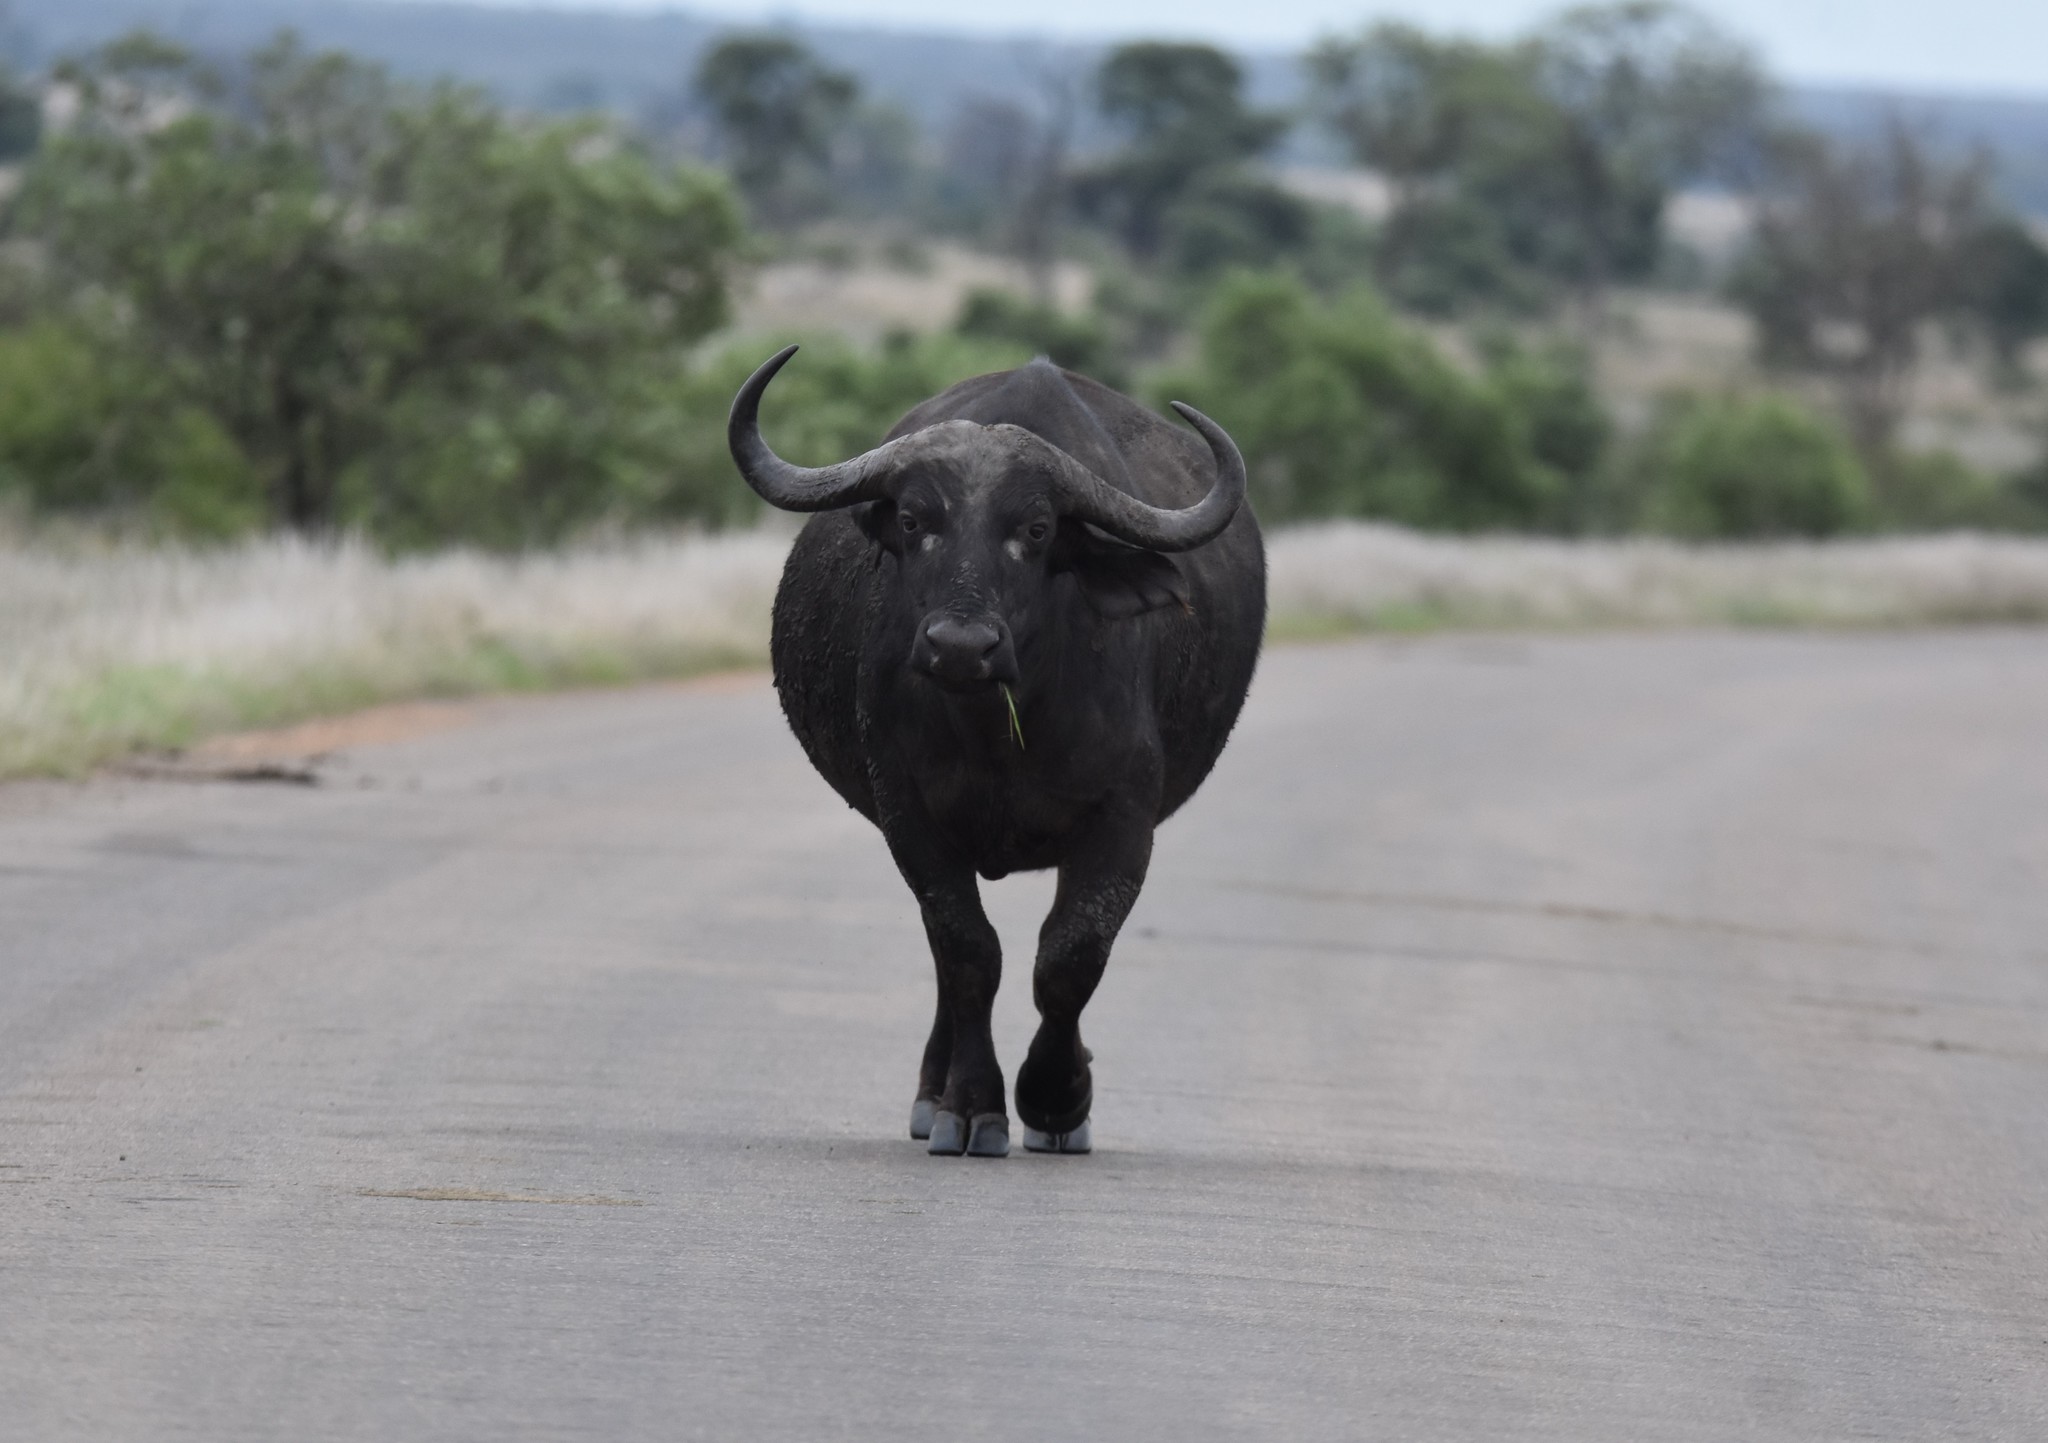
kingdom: Animalia
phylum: Chordata
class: Mammalia
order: Artiodactyla
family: Bovidae
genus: Syncerus
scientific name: Syncerus caffer
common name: African buffalo
